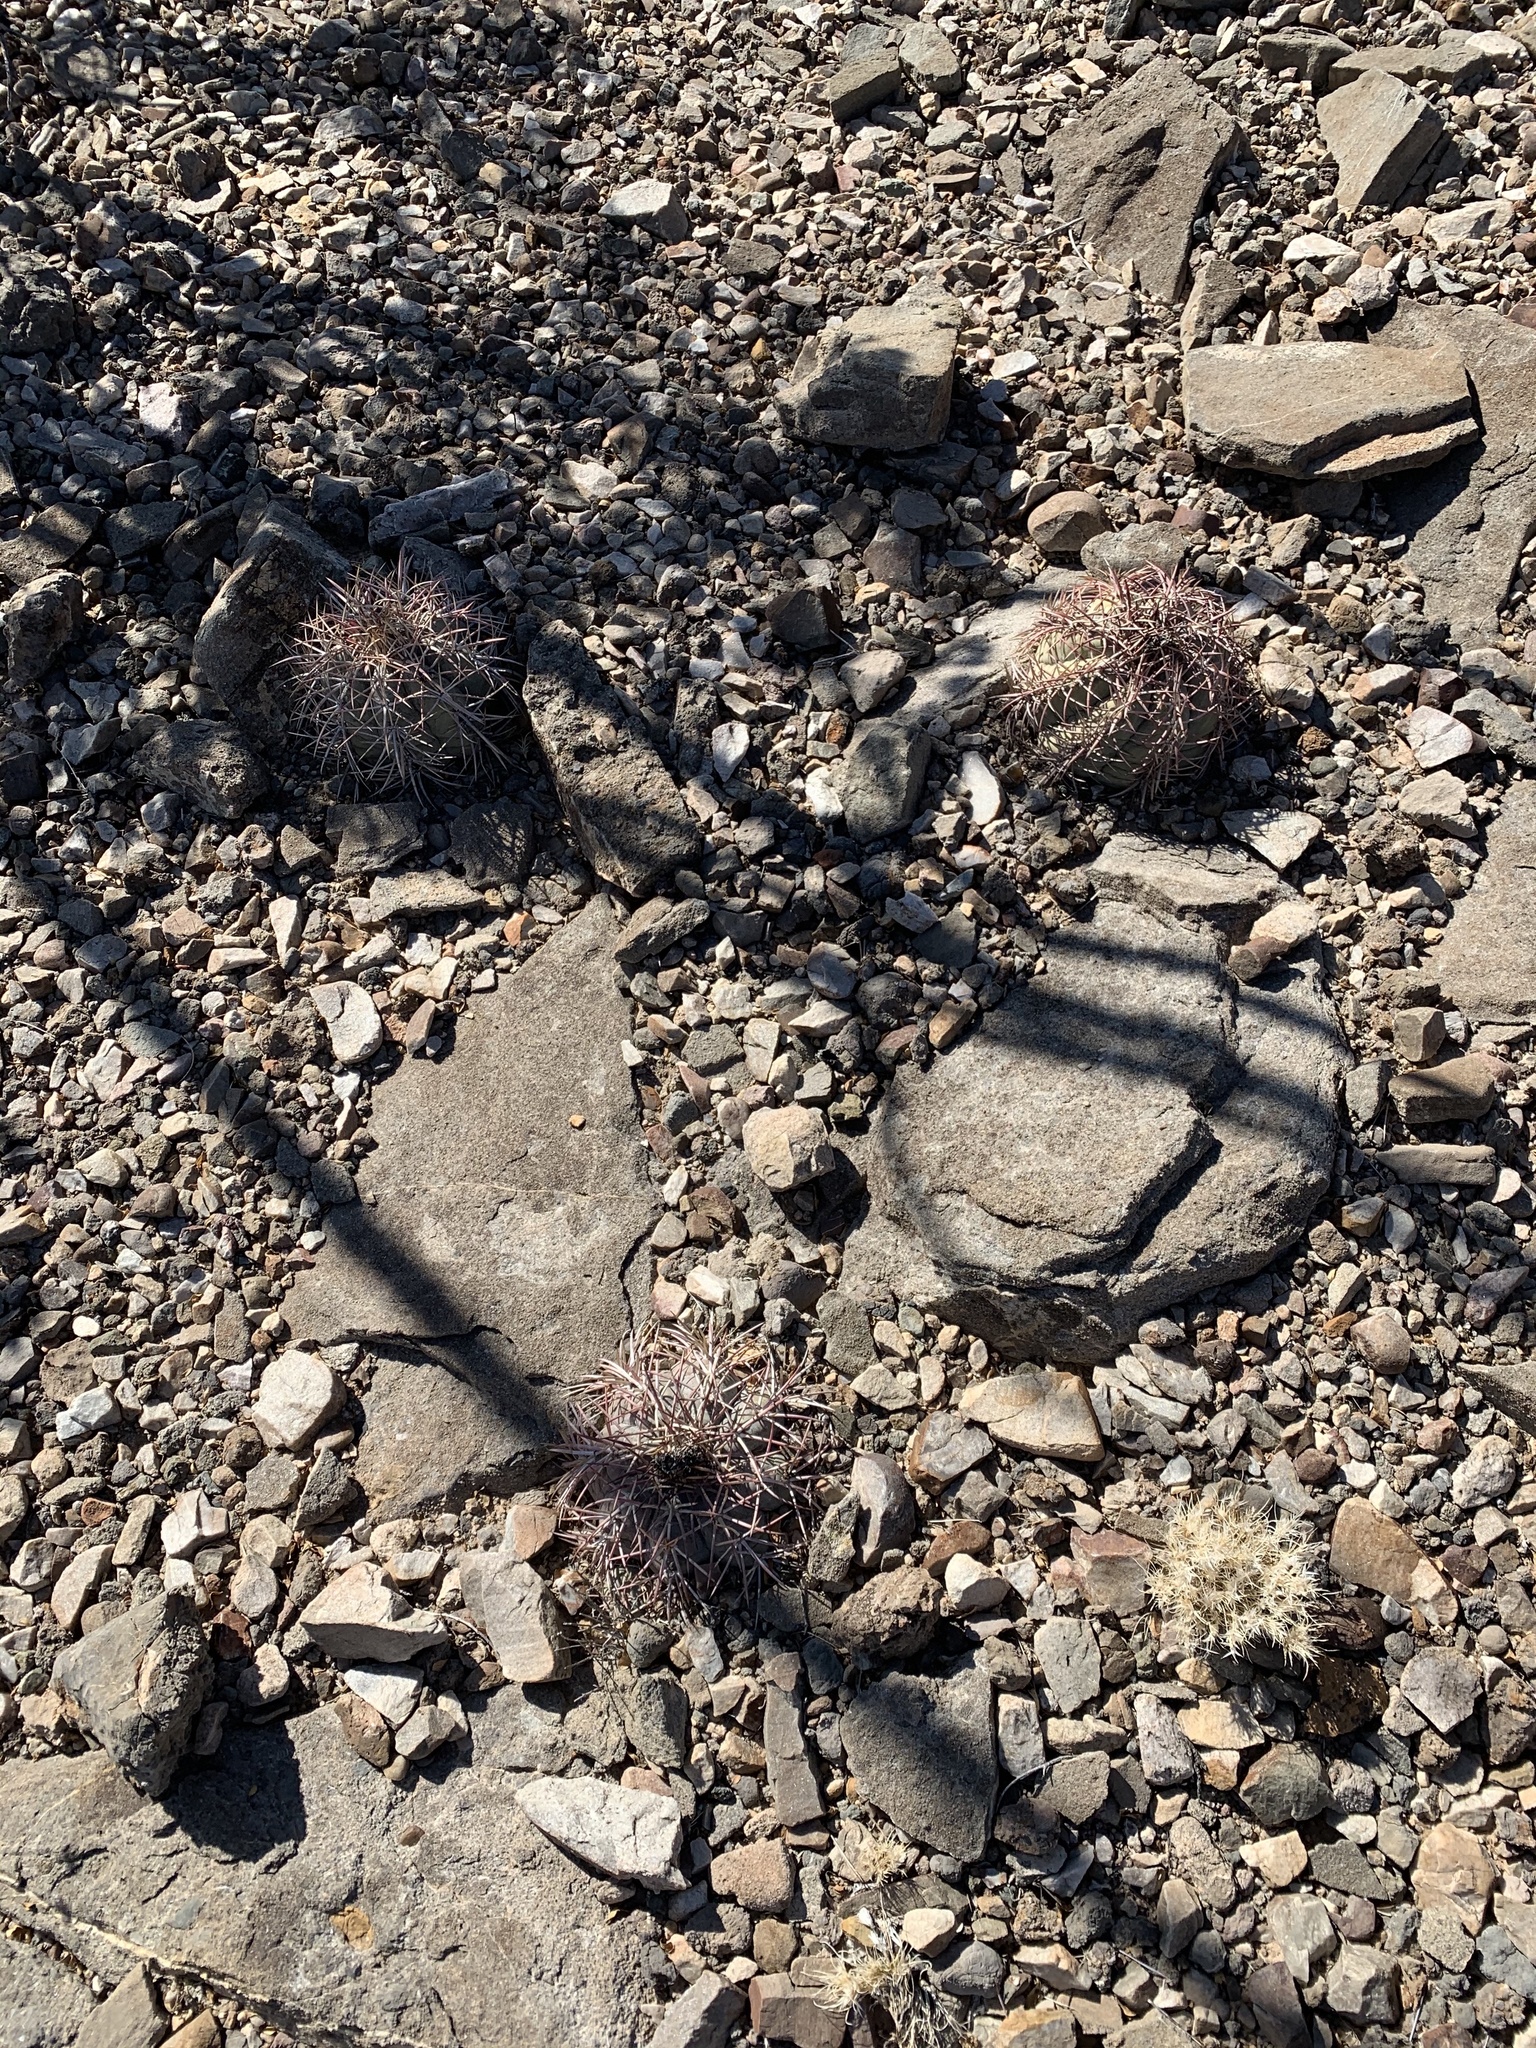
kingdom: Plantae
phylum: Tracheophyta
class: Magnoliopsida
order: Caryophyllales
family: Cactaceae
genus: Echinocactus
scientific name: Echinocactus horizonthalonius
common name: Devilshead
